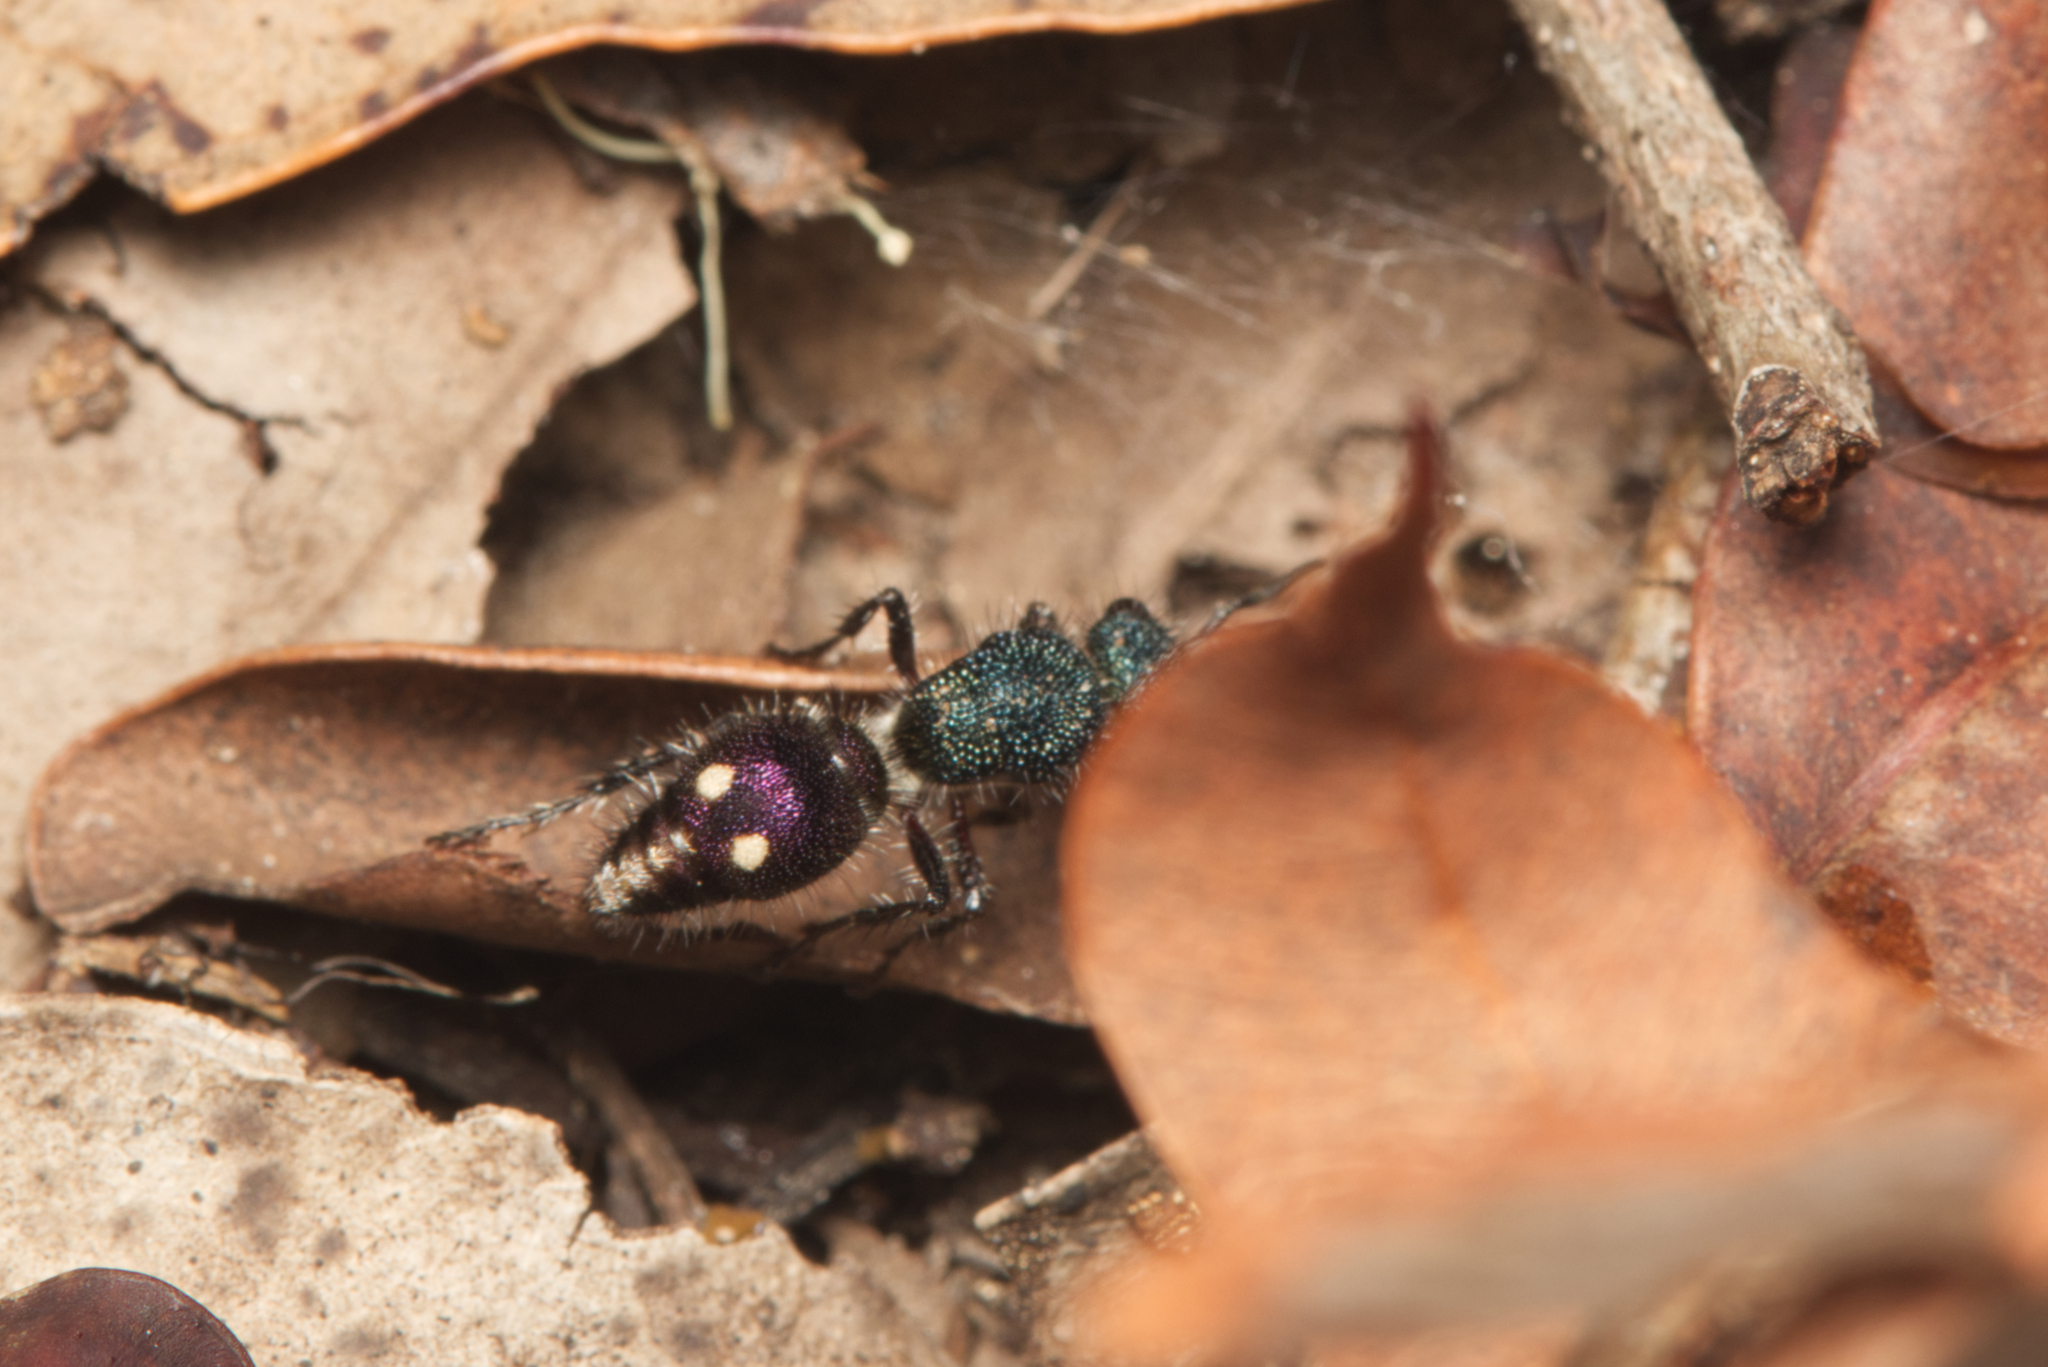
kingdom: Animalia
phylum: Arthropoda
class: Insecta
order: Hymenoptera
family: Mutillidae
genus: Ephutomorpha
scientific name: Ephutomorpha
